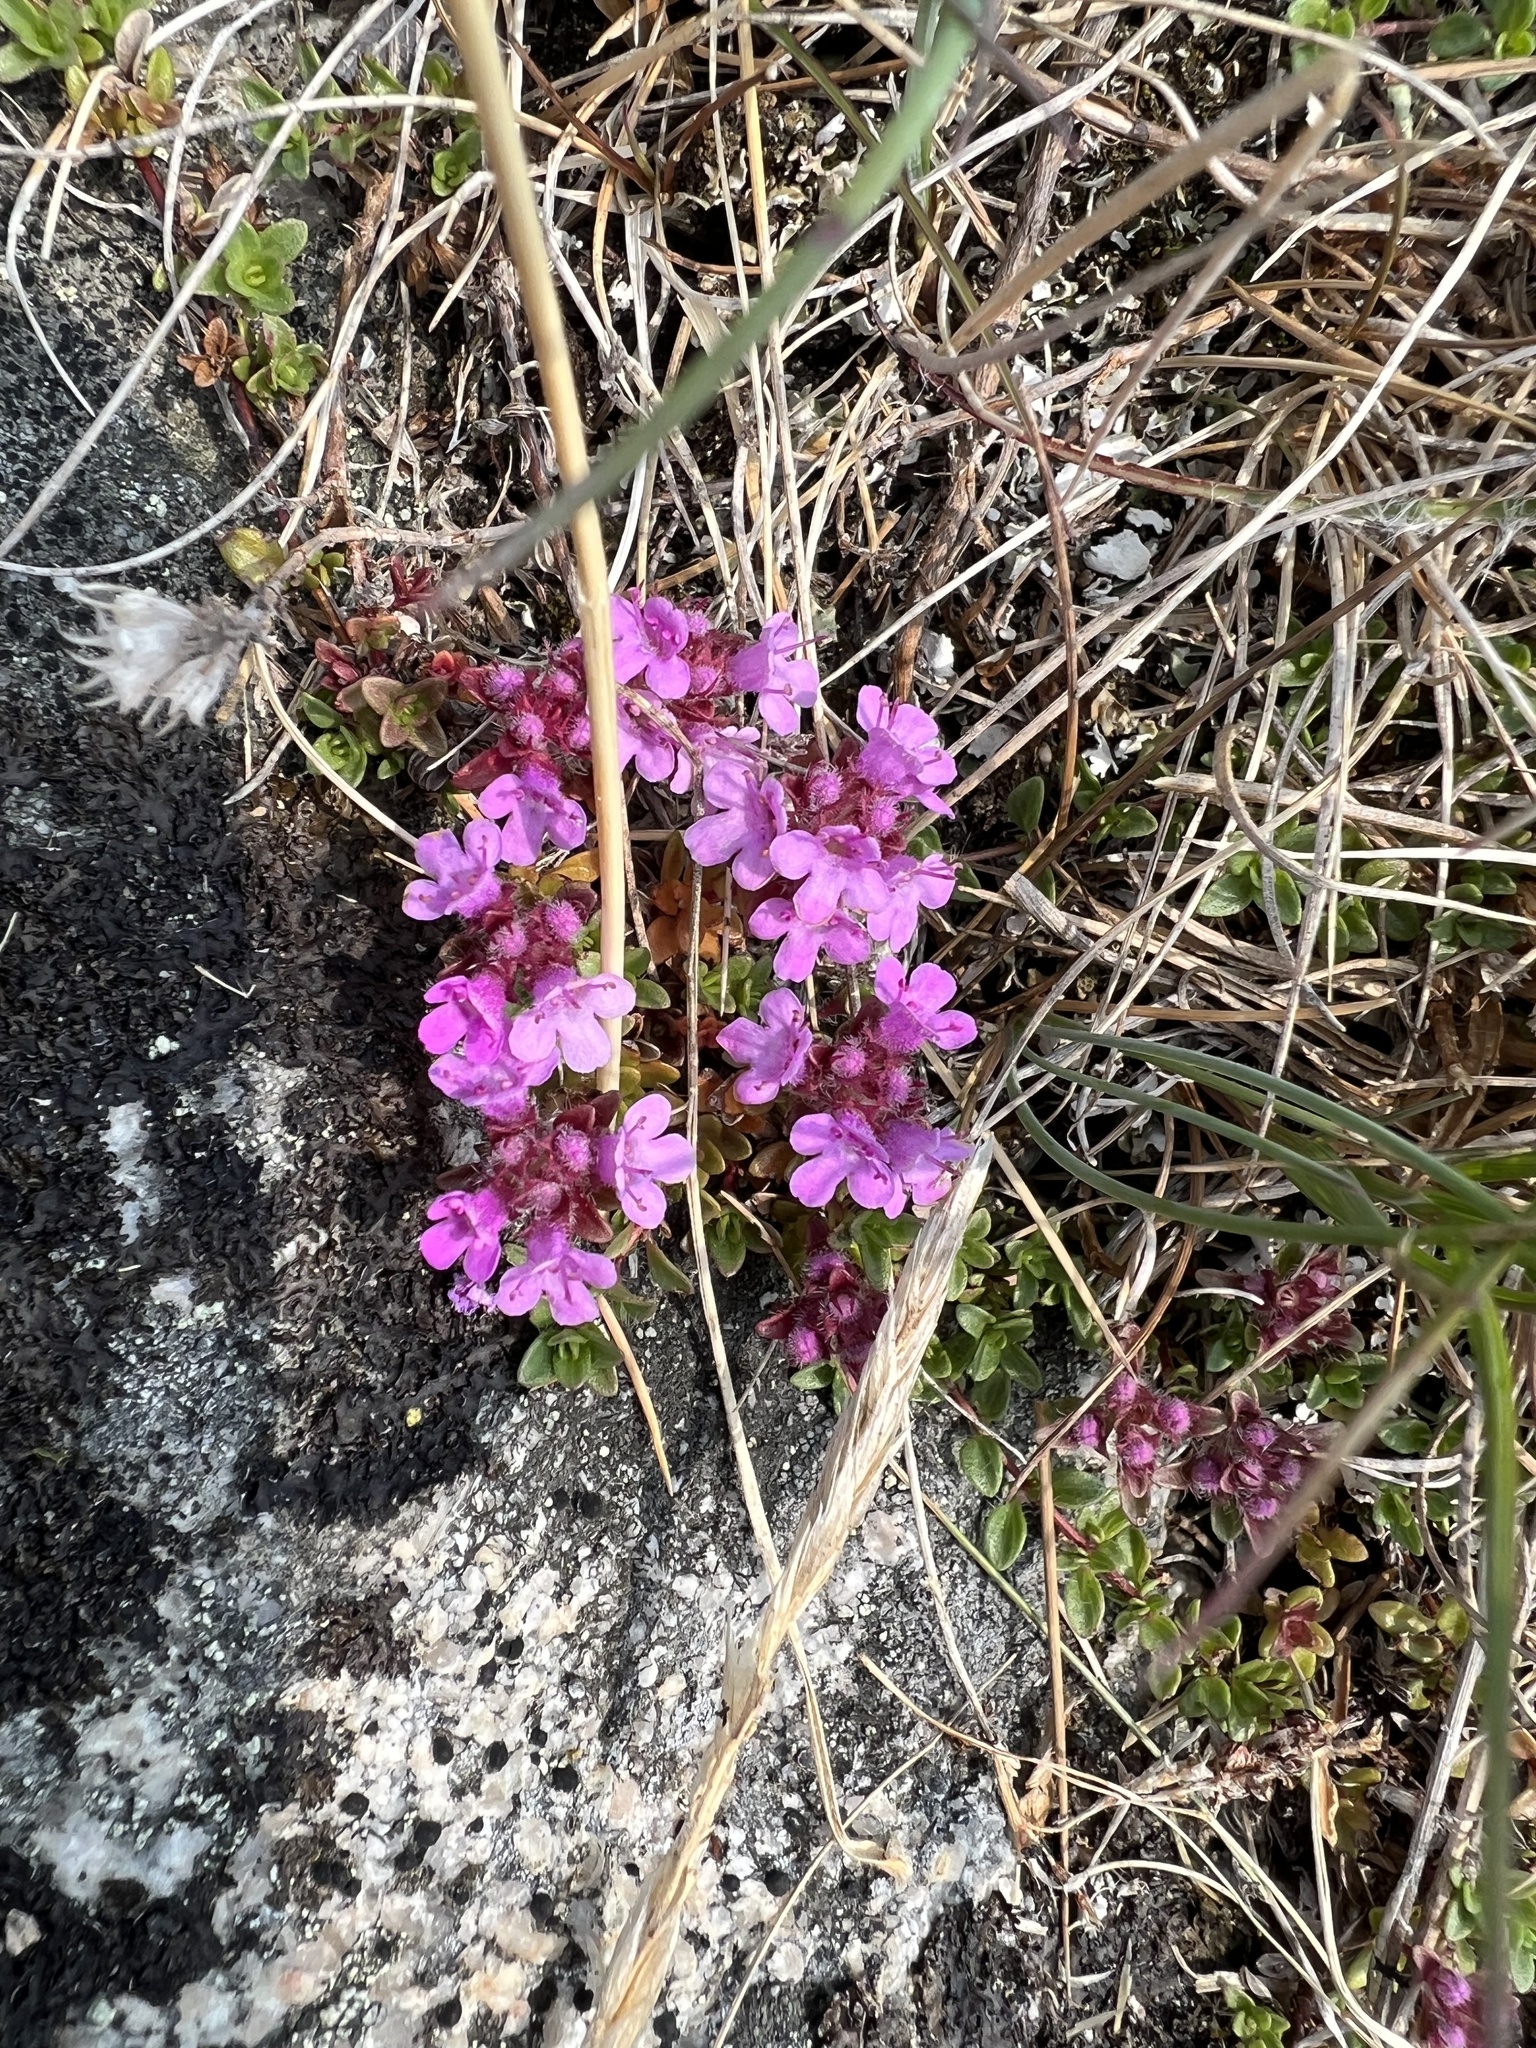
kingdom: Plantae
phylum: Tracheophyta
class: Magnoliopsida
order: Lamiales
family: Lamiaceae
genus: Thymus
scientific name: Thymus praecox
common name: Wild thyme
